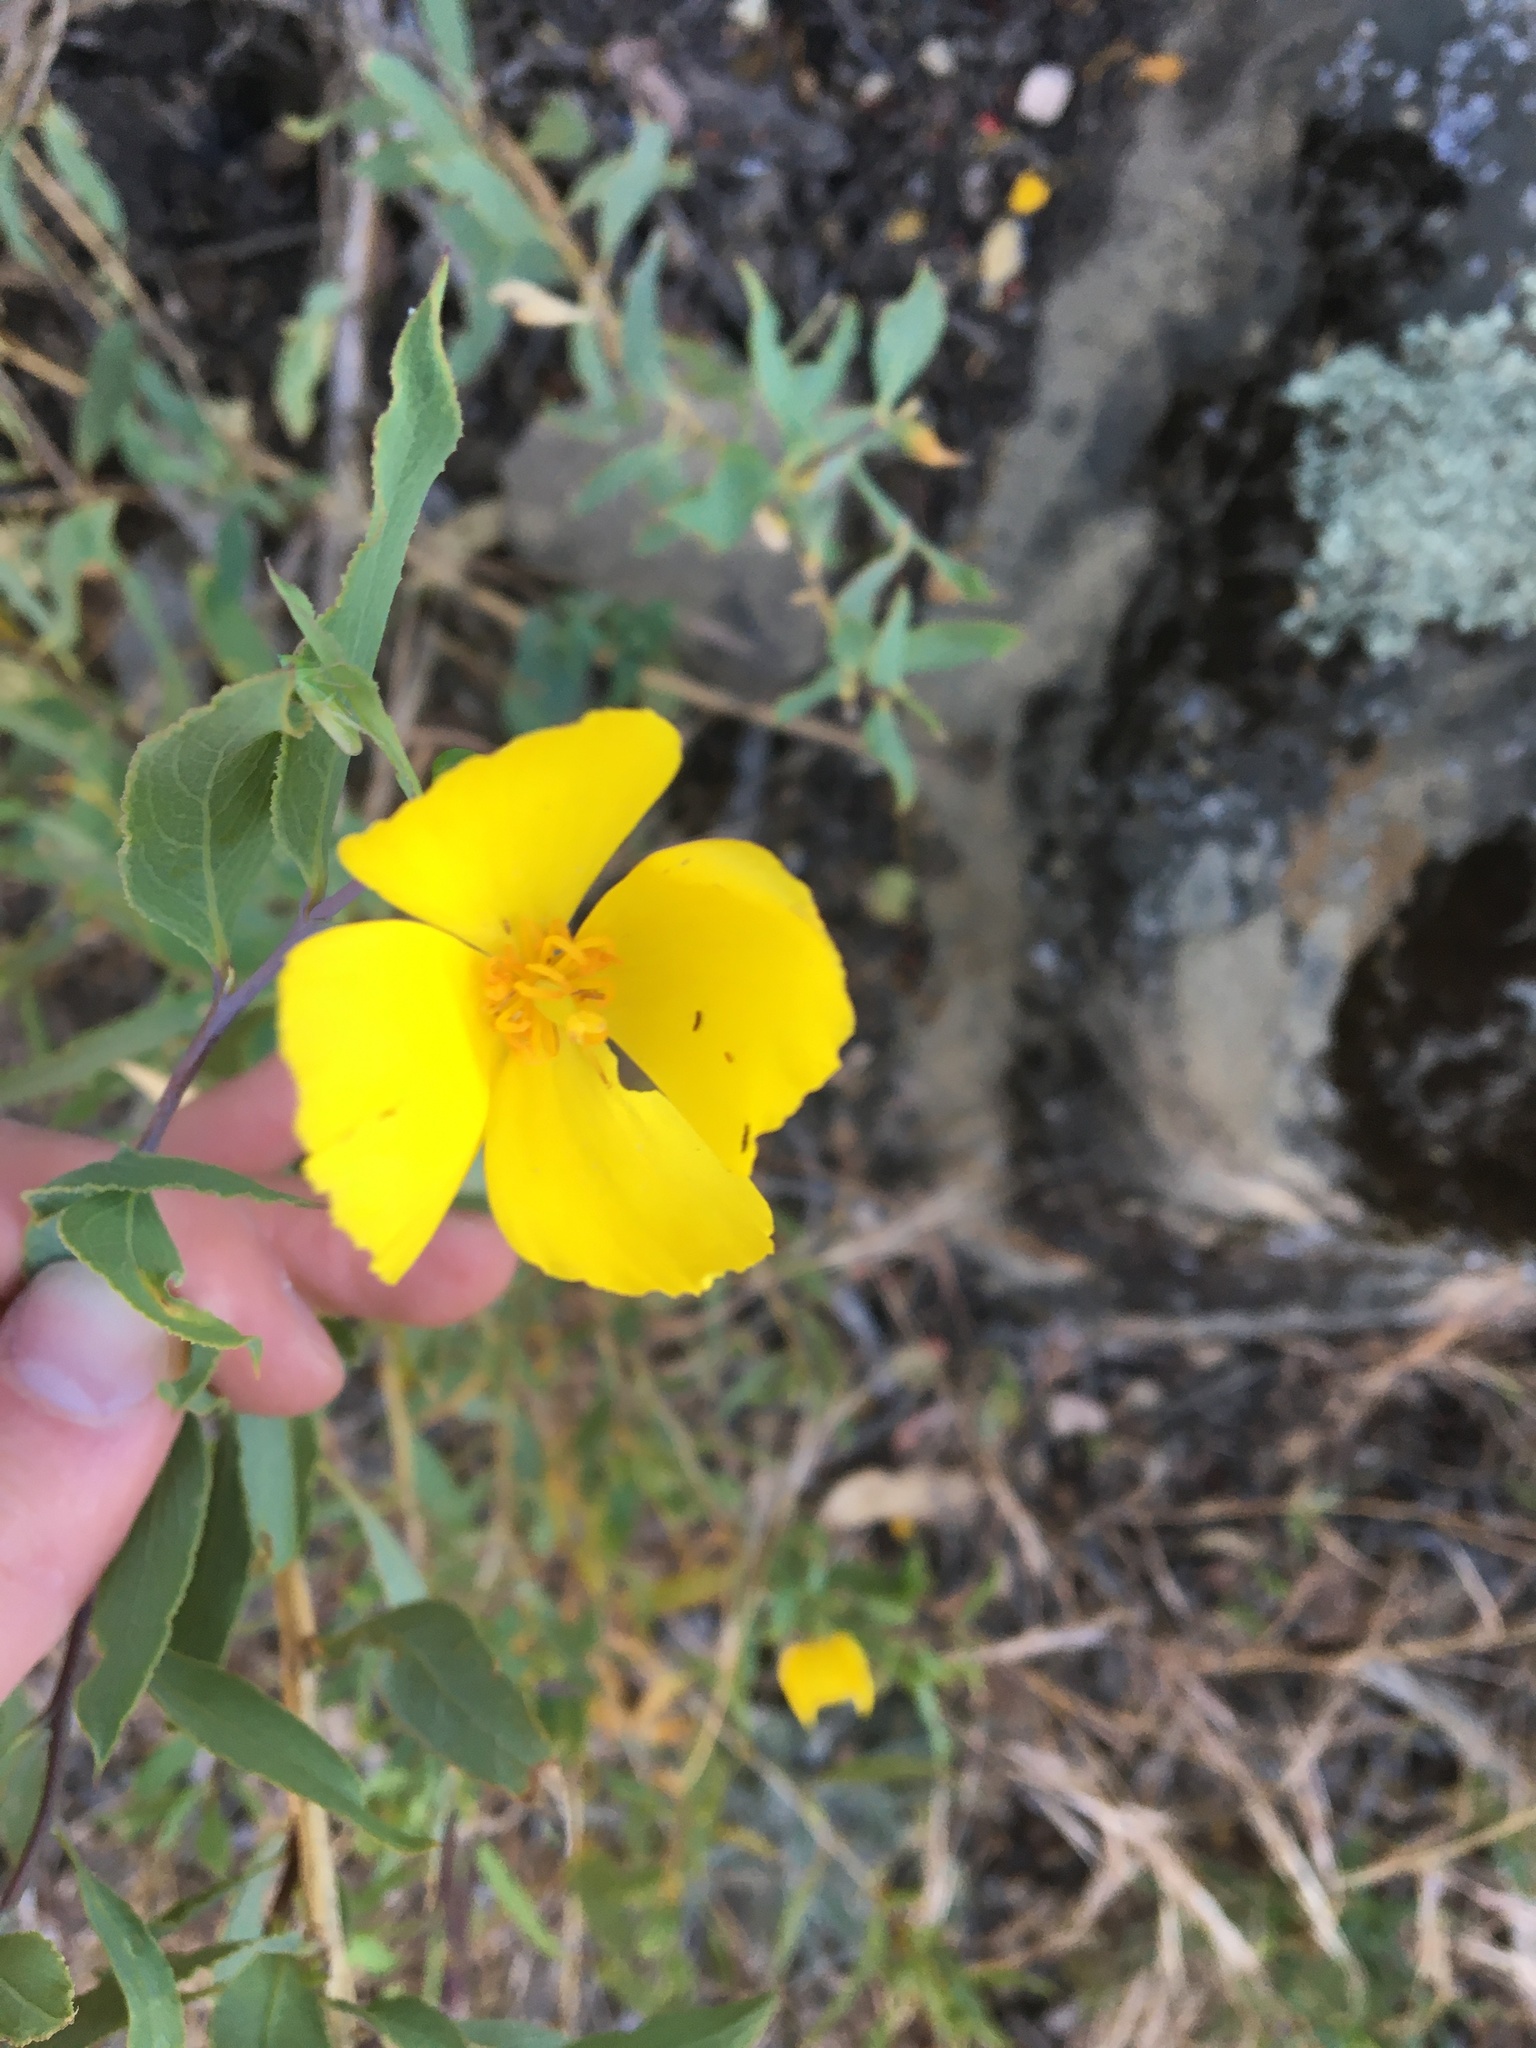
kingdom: Plantae
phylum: Tracheophyta
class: Magnoliopsida
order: Ranunculales
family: Papaveraceae
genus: Dendromecon
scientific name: Dendromecon rigida
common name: Tree poppy
